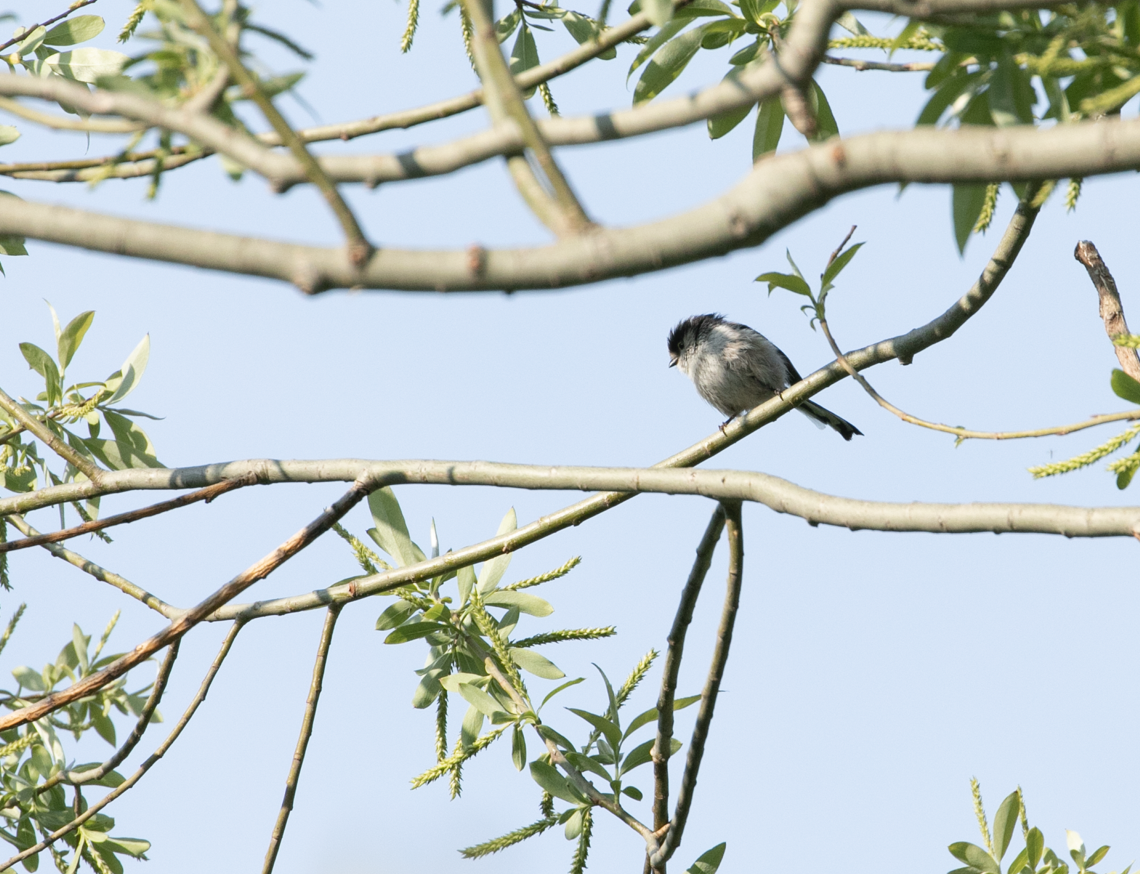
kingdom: Animalia
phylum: Chordata
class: Aves
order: Passeriformes
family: Aegithalidae
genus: Aegithalos
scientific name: Aegithalos caudatus
